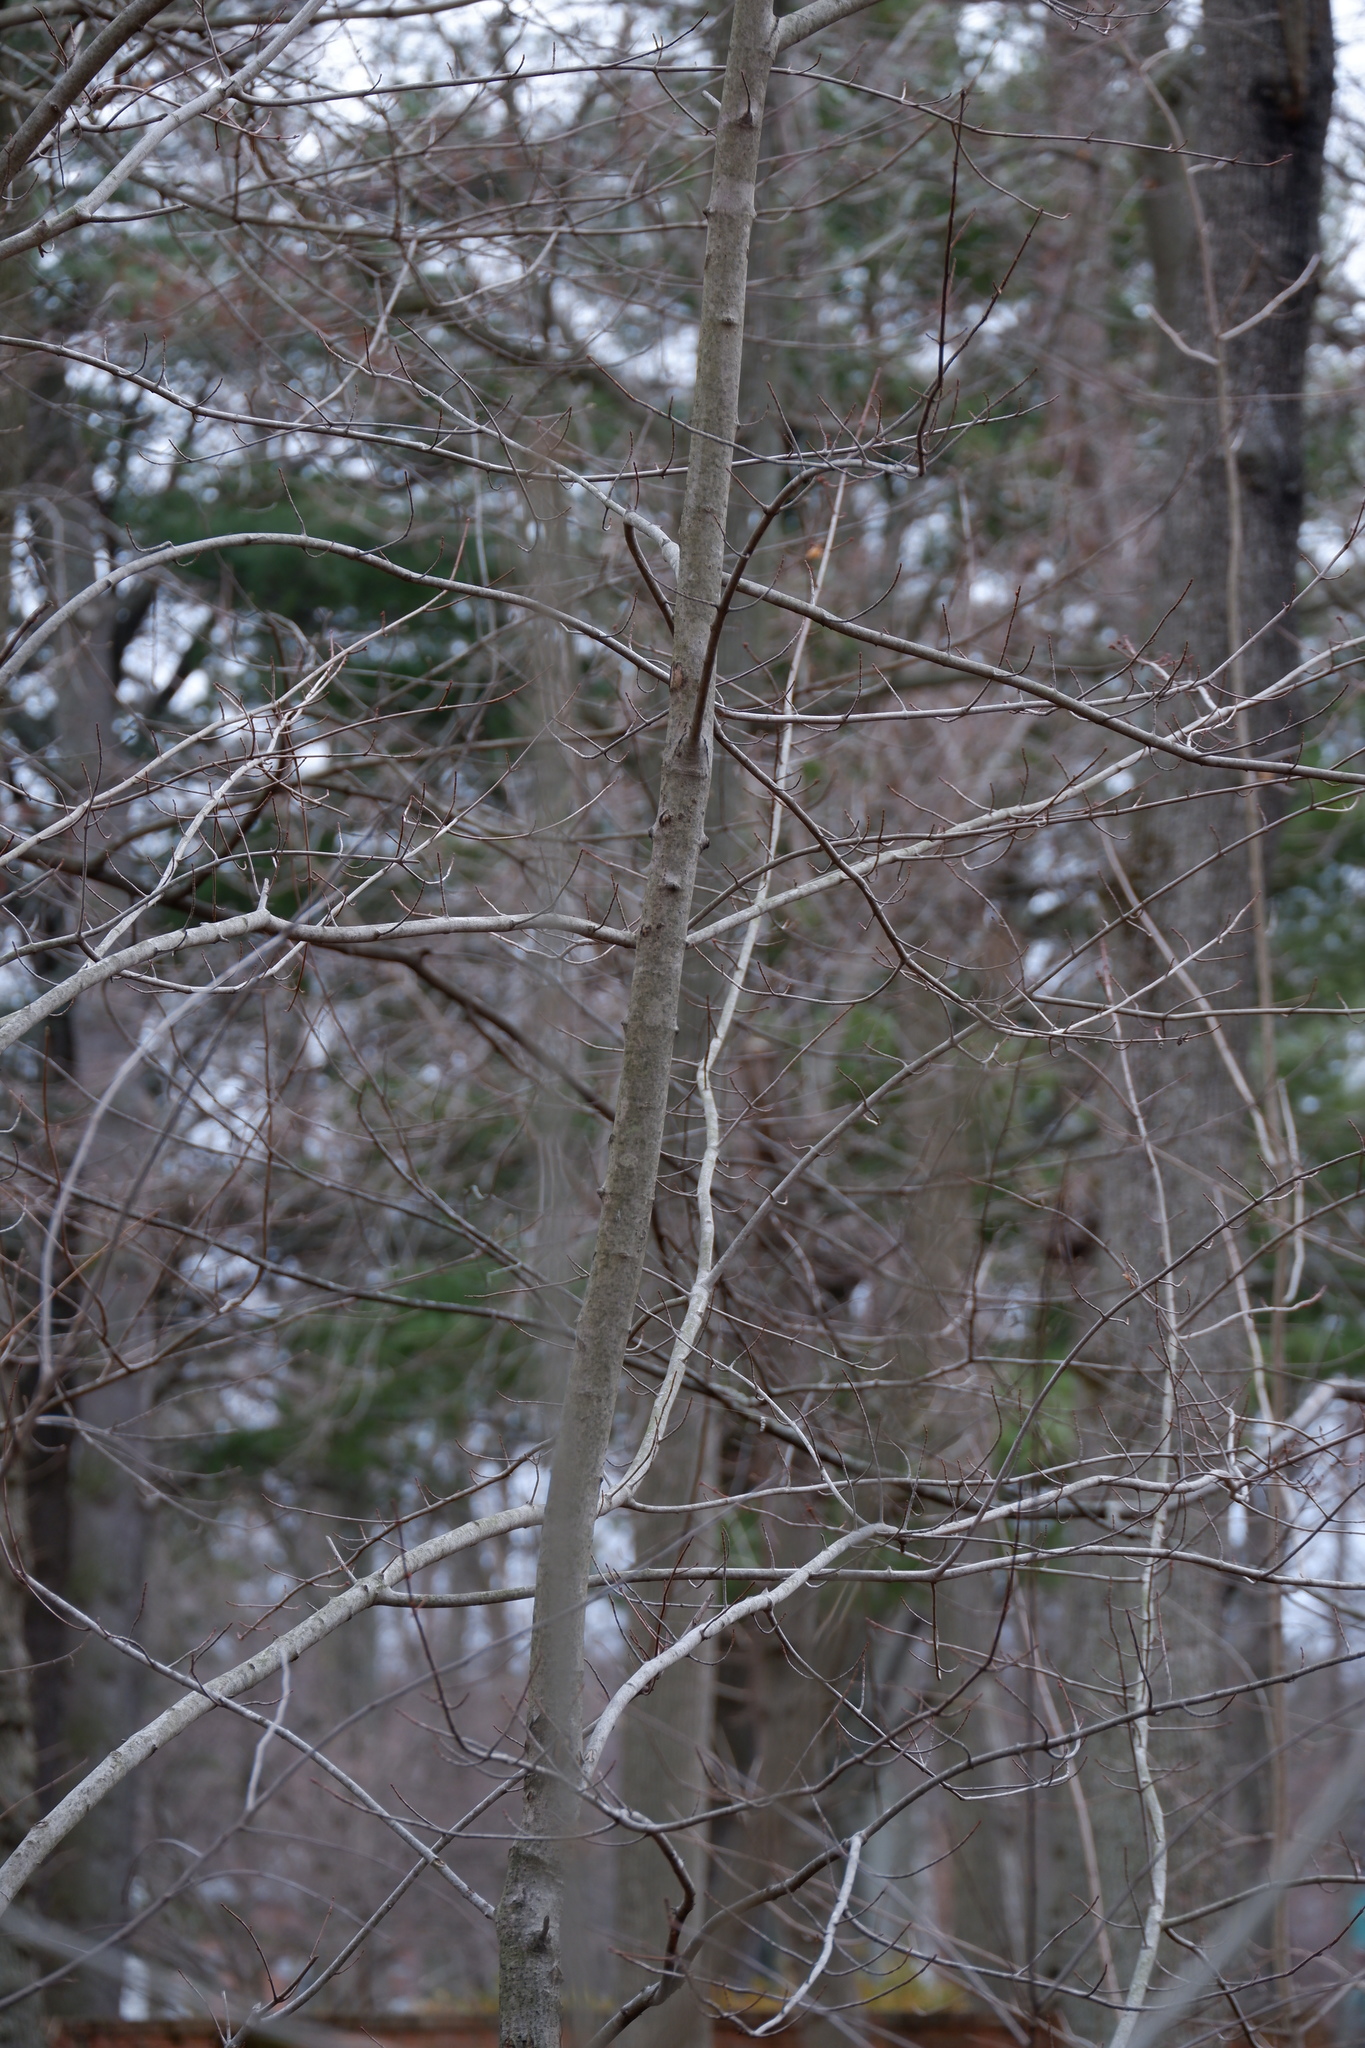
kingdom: Plantae
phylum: Tracheophyta
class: Magnoliopsida
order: Sapindales
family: Sapindaceae
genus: Acer
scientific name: Acer rubrum
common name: Red maple
